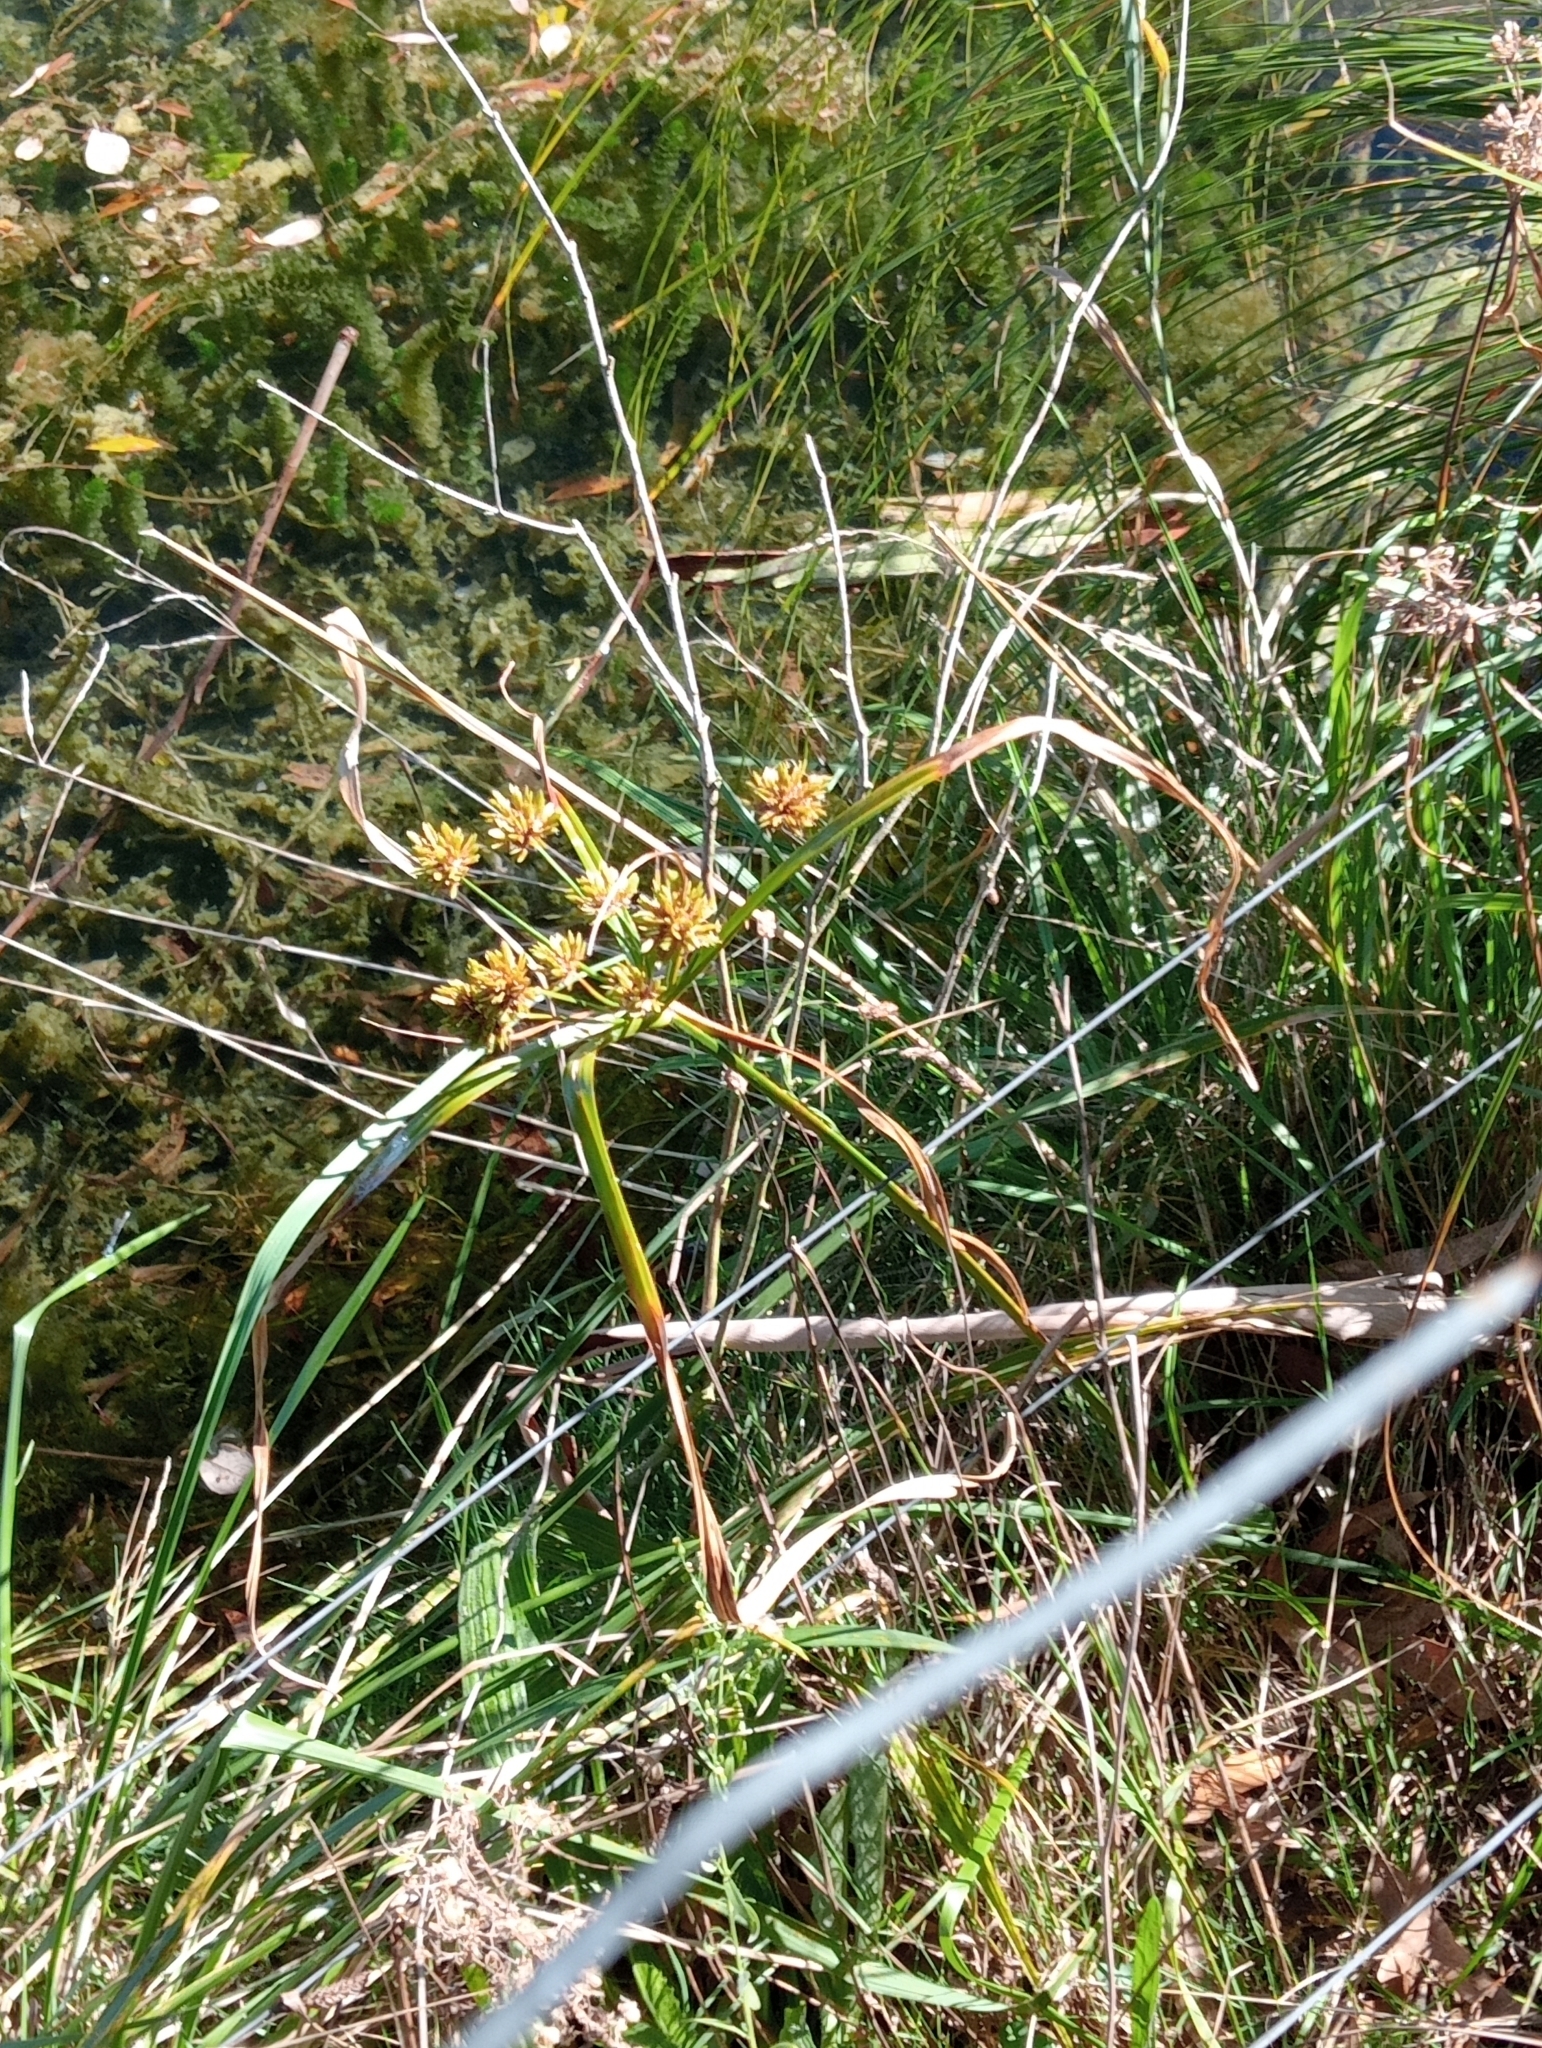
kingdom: Plantae
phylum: Tracheophyta
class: Liliopsida
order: Poales
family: Cyperaceae
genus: Cyperus
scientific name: Cyperus eragrostis
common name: Tall flatsedge
